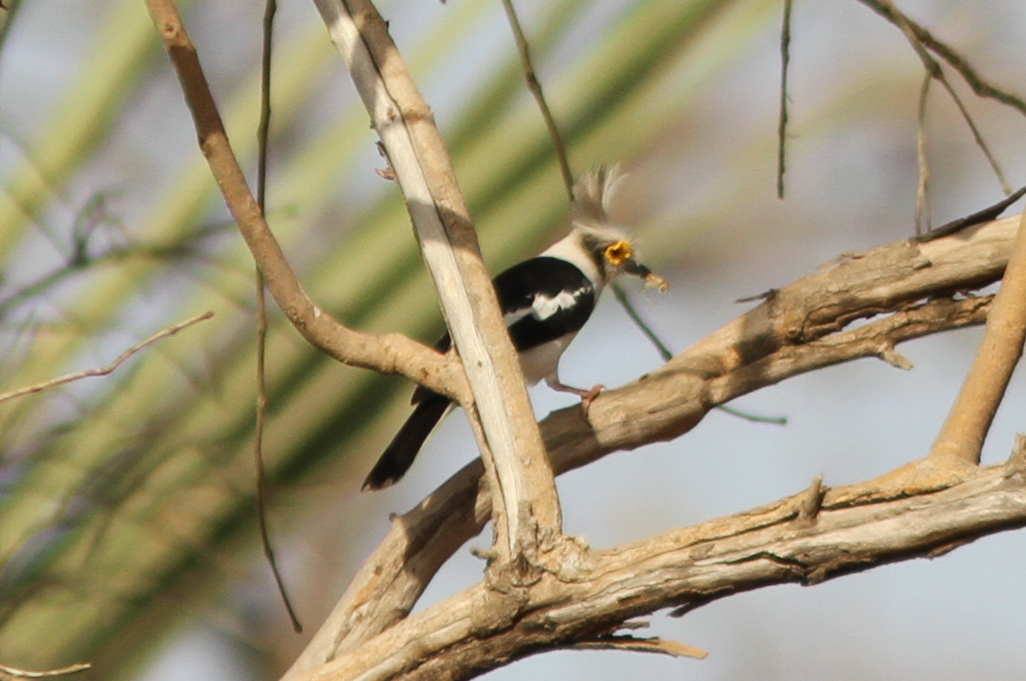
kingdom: Animalia
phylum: Chordata
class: Aves
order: Passeriformes
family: Prionopidae
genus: Prionops
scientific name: Prionops plumatus
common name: White-crested helmetshrike
